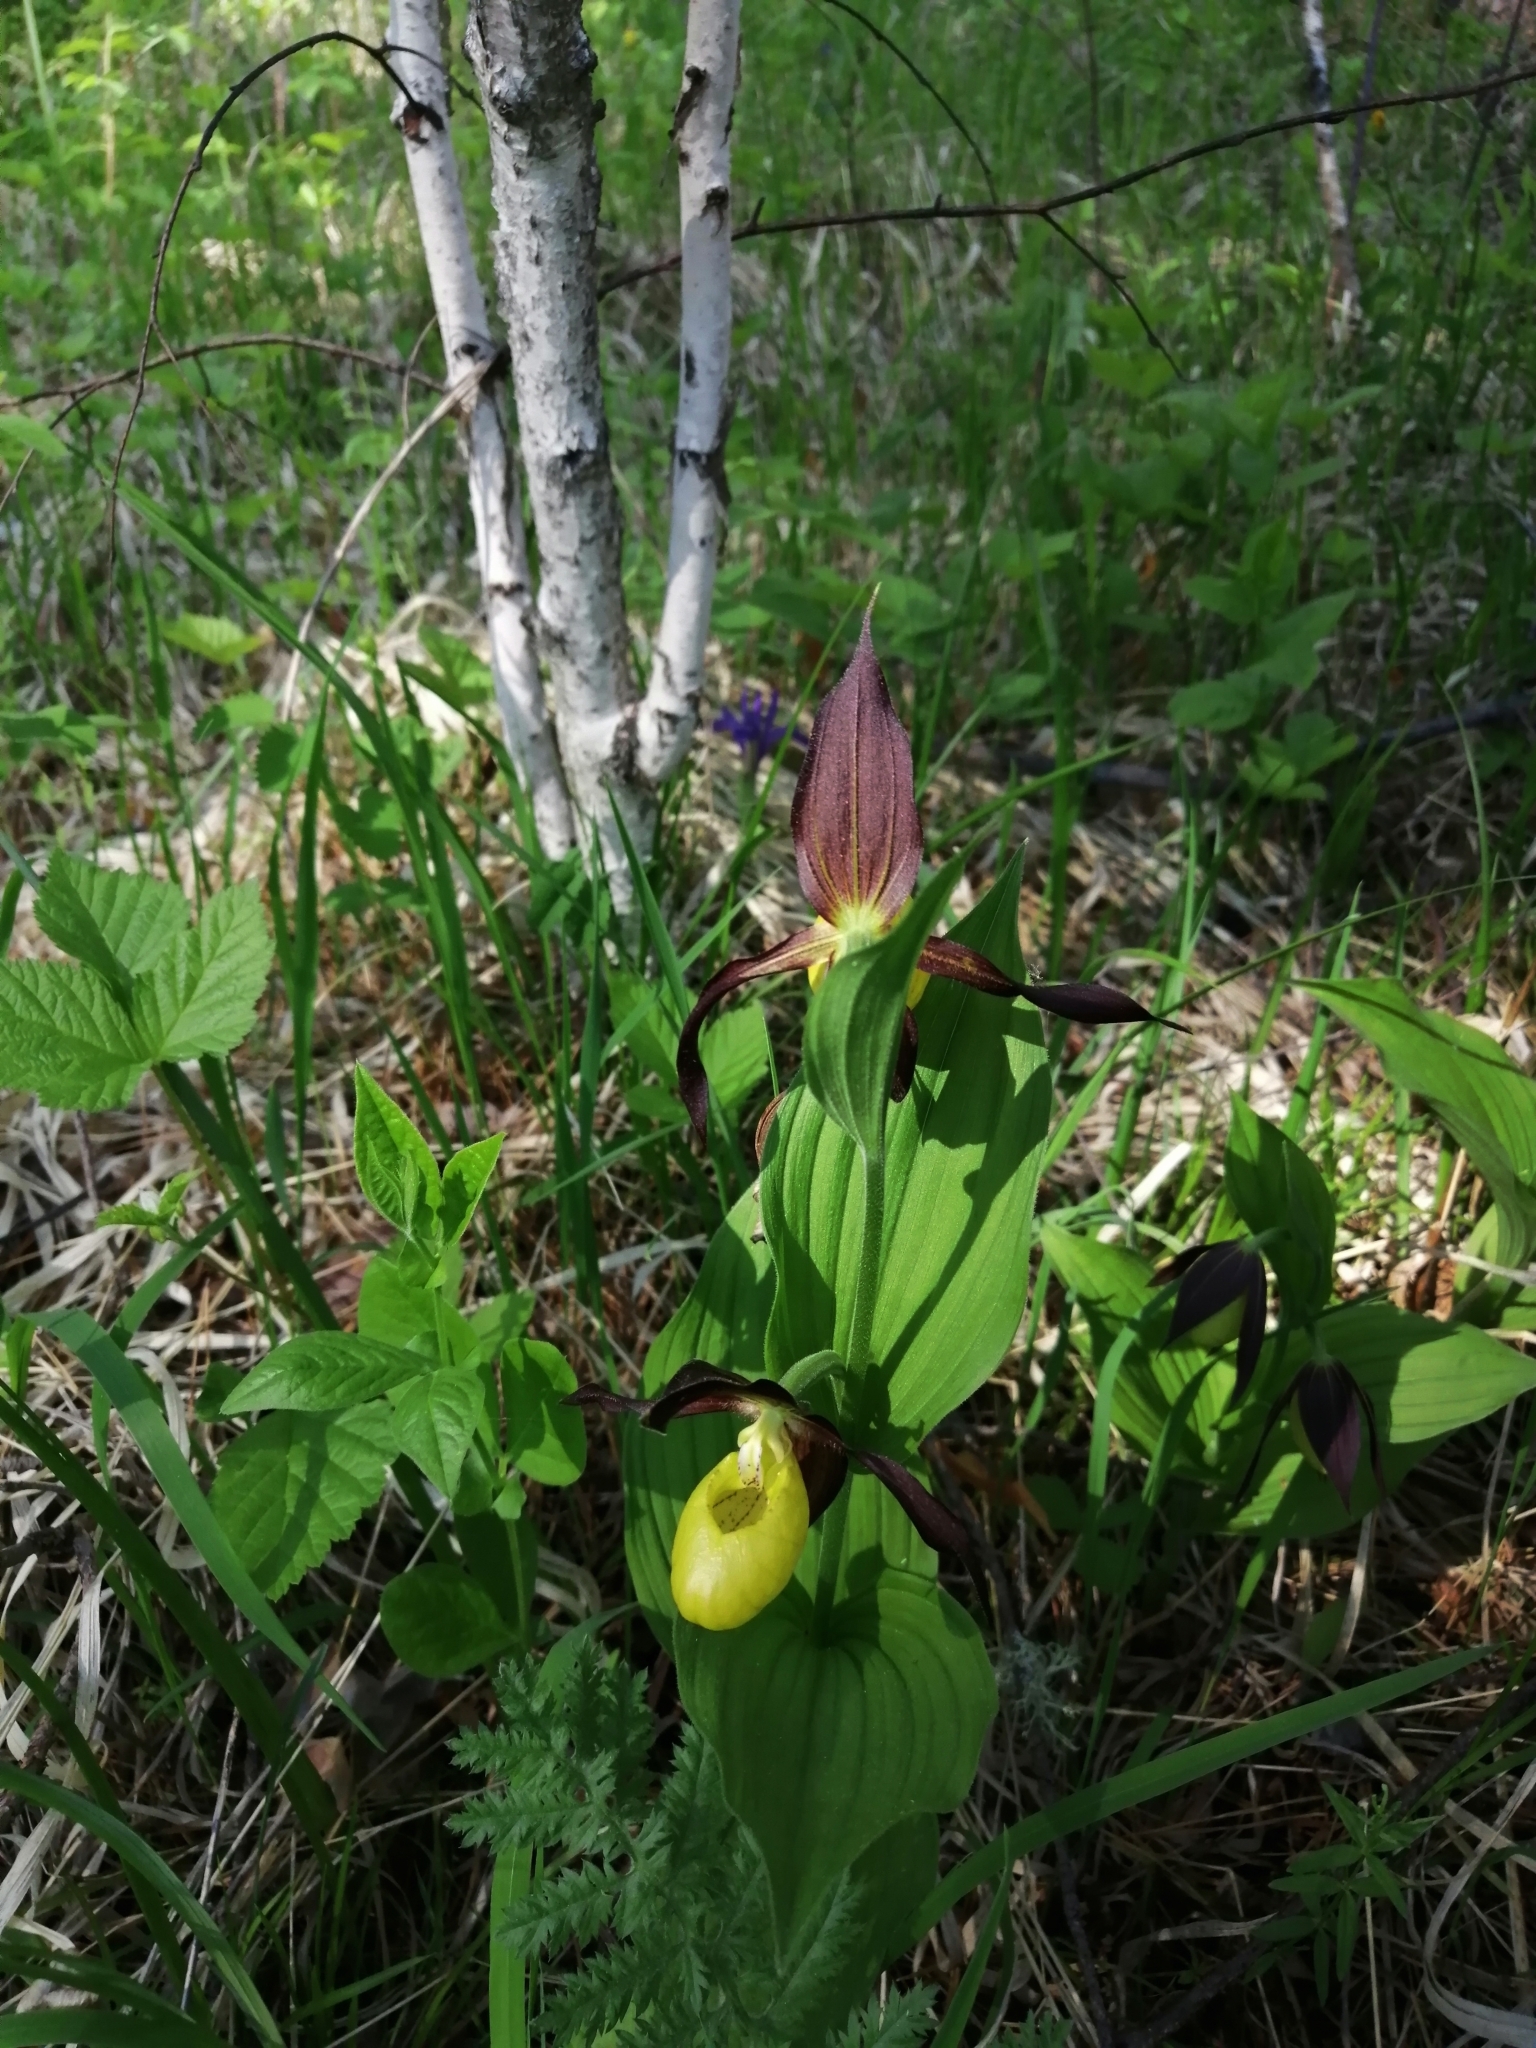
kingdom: Plantae
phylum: Tracheophyta
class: Liliopsida
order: Asparagales
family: Orchidaceae
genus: Cypripedium
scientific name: Cypripedium calceolus
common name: Lady's-slipper
